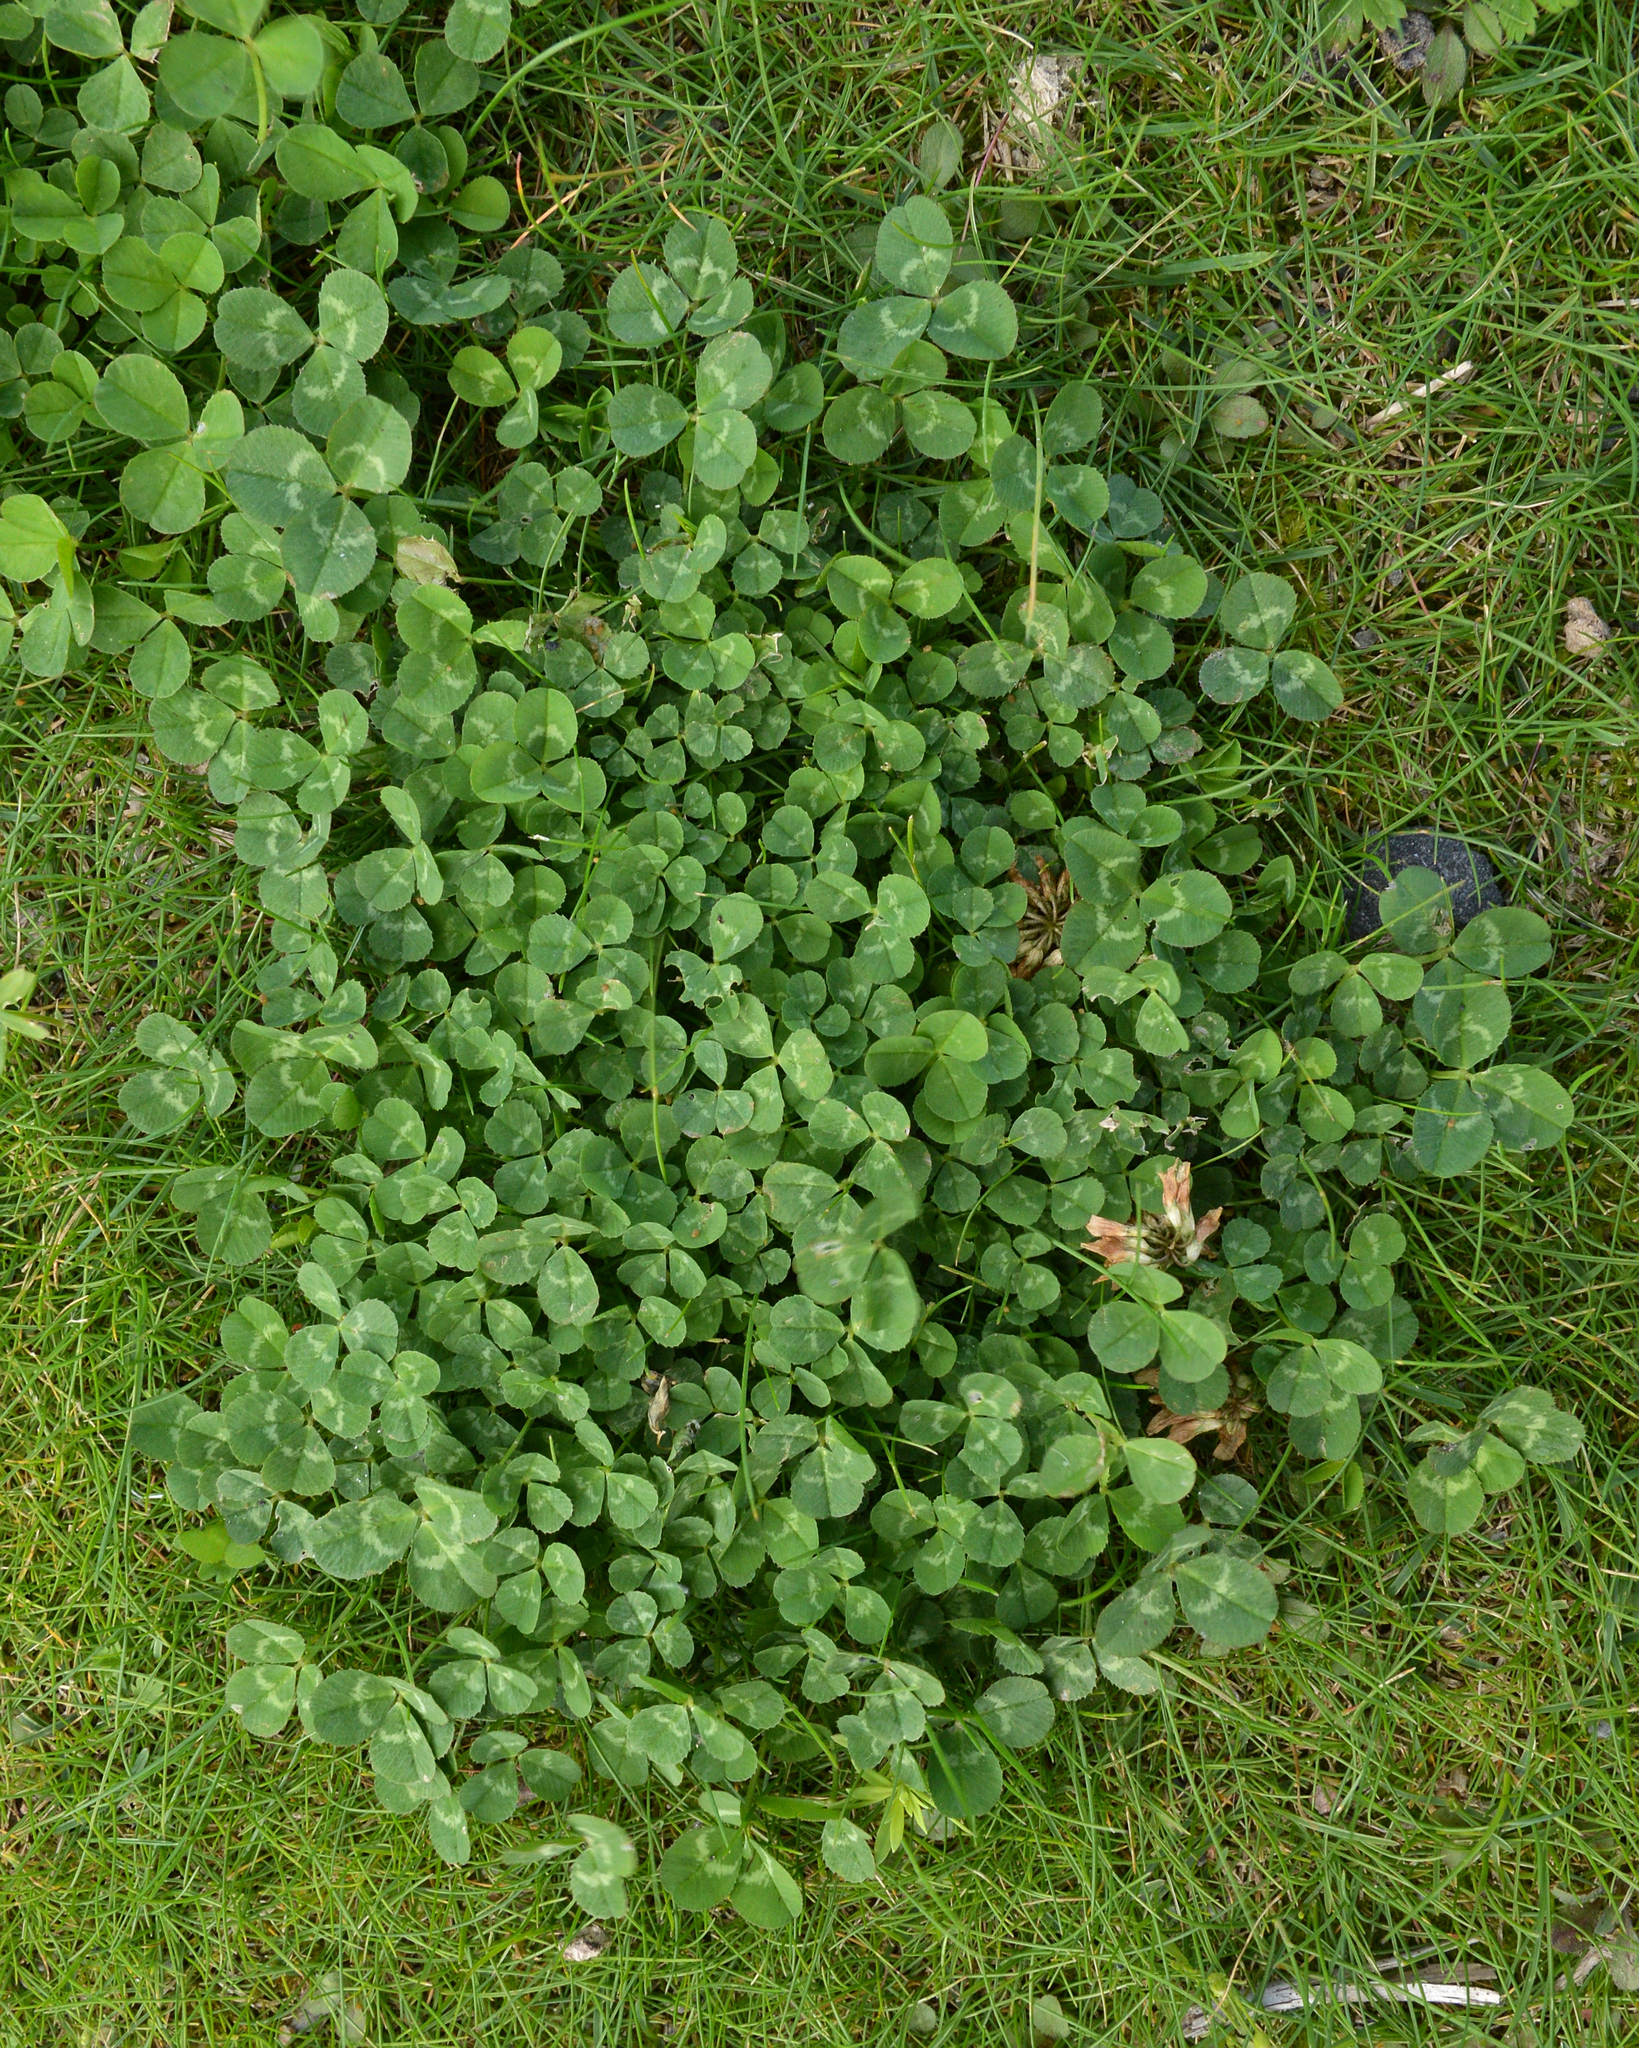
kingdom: Plantae
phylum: Tracheophyta
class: Magnoliopsida
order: Fabales
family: Fabaceae
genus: Trifolium
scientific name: Trifolium repens
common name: White clover
